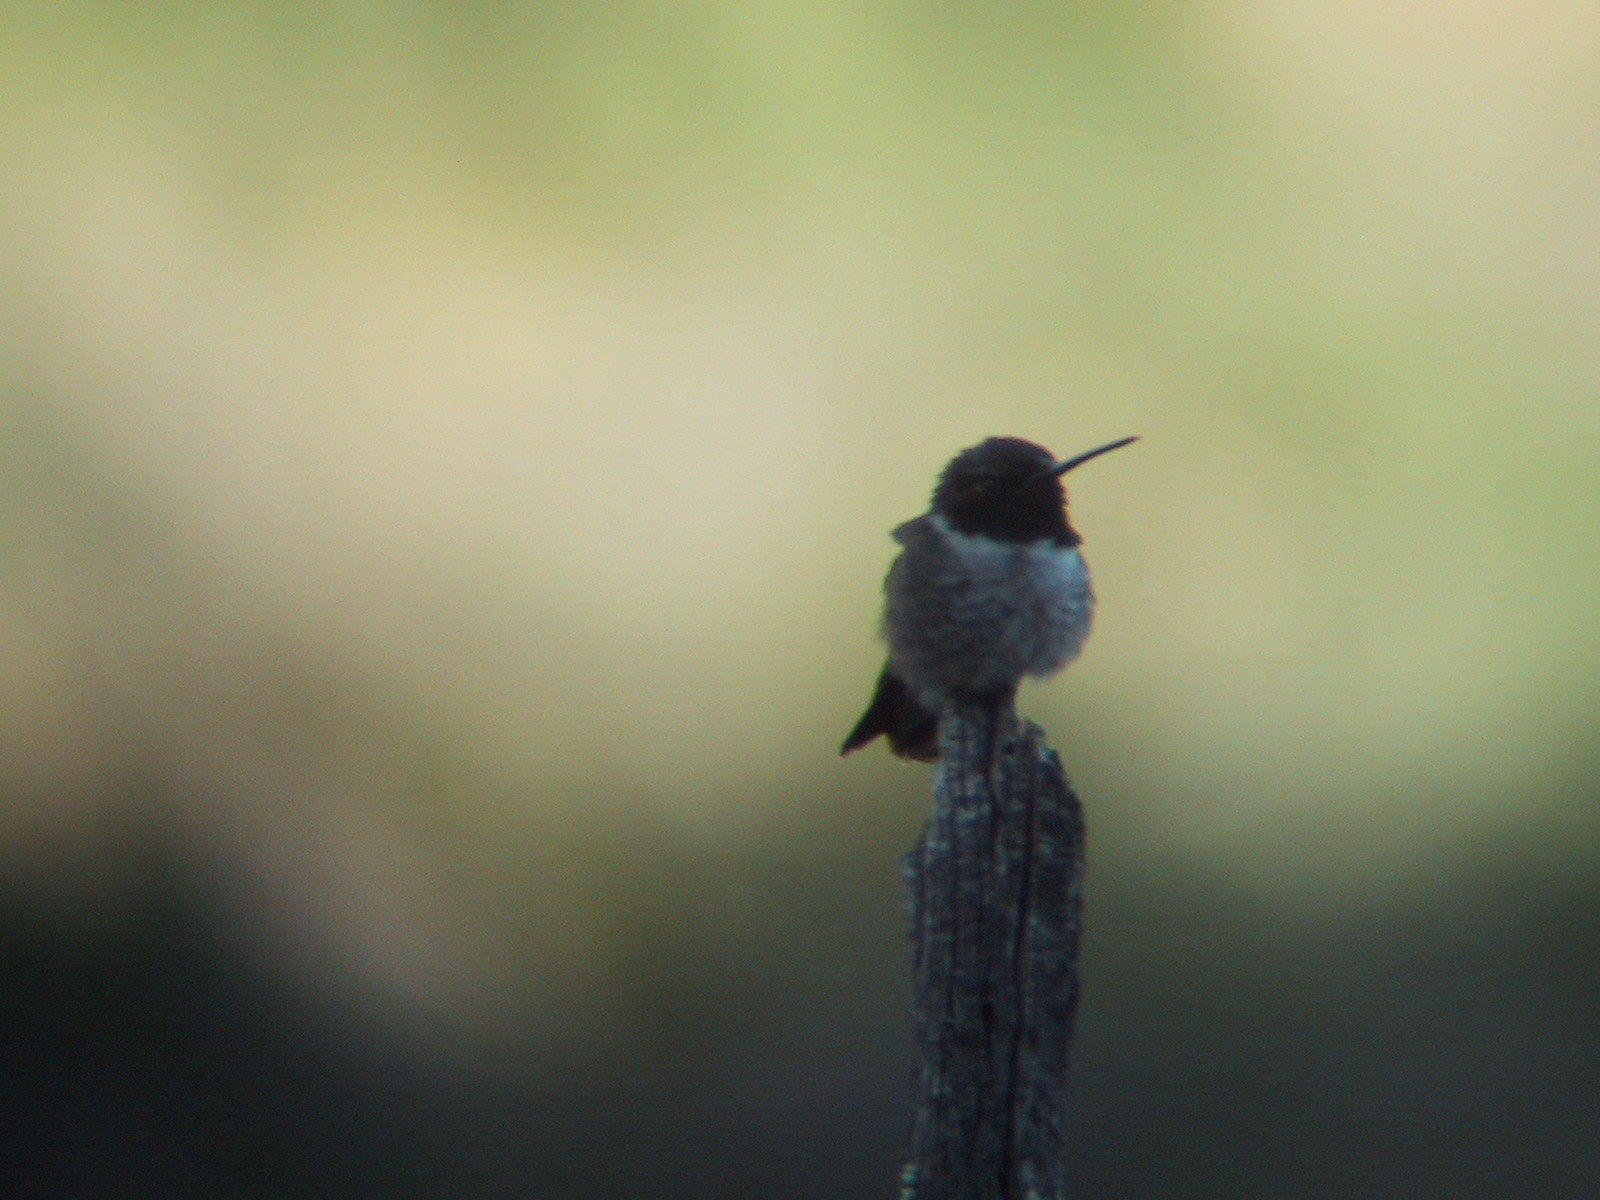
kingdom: Animalia
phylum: Chordata
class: Aves
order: Apodiformes
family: Trochilidae
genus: Archilochus
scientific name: Archilochus alexandri
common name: Black-chinned hummingbird
